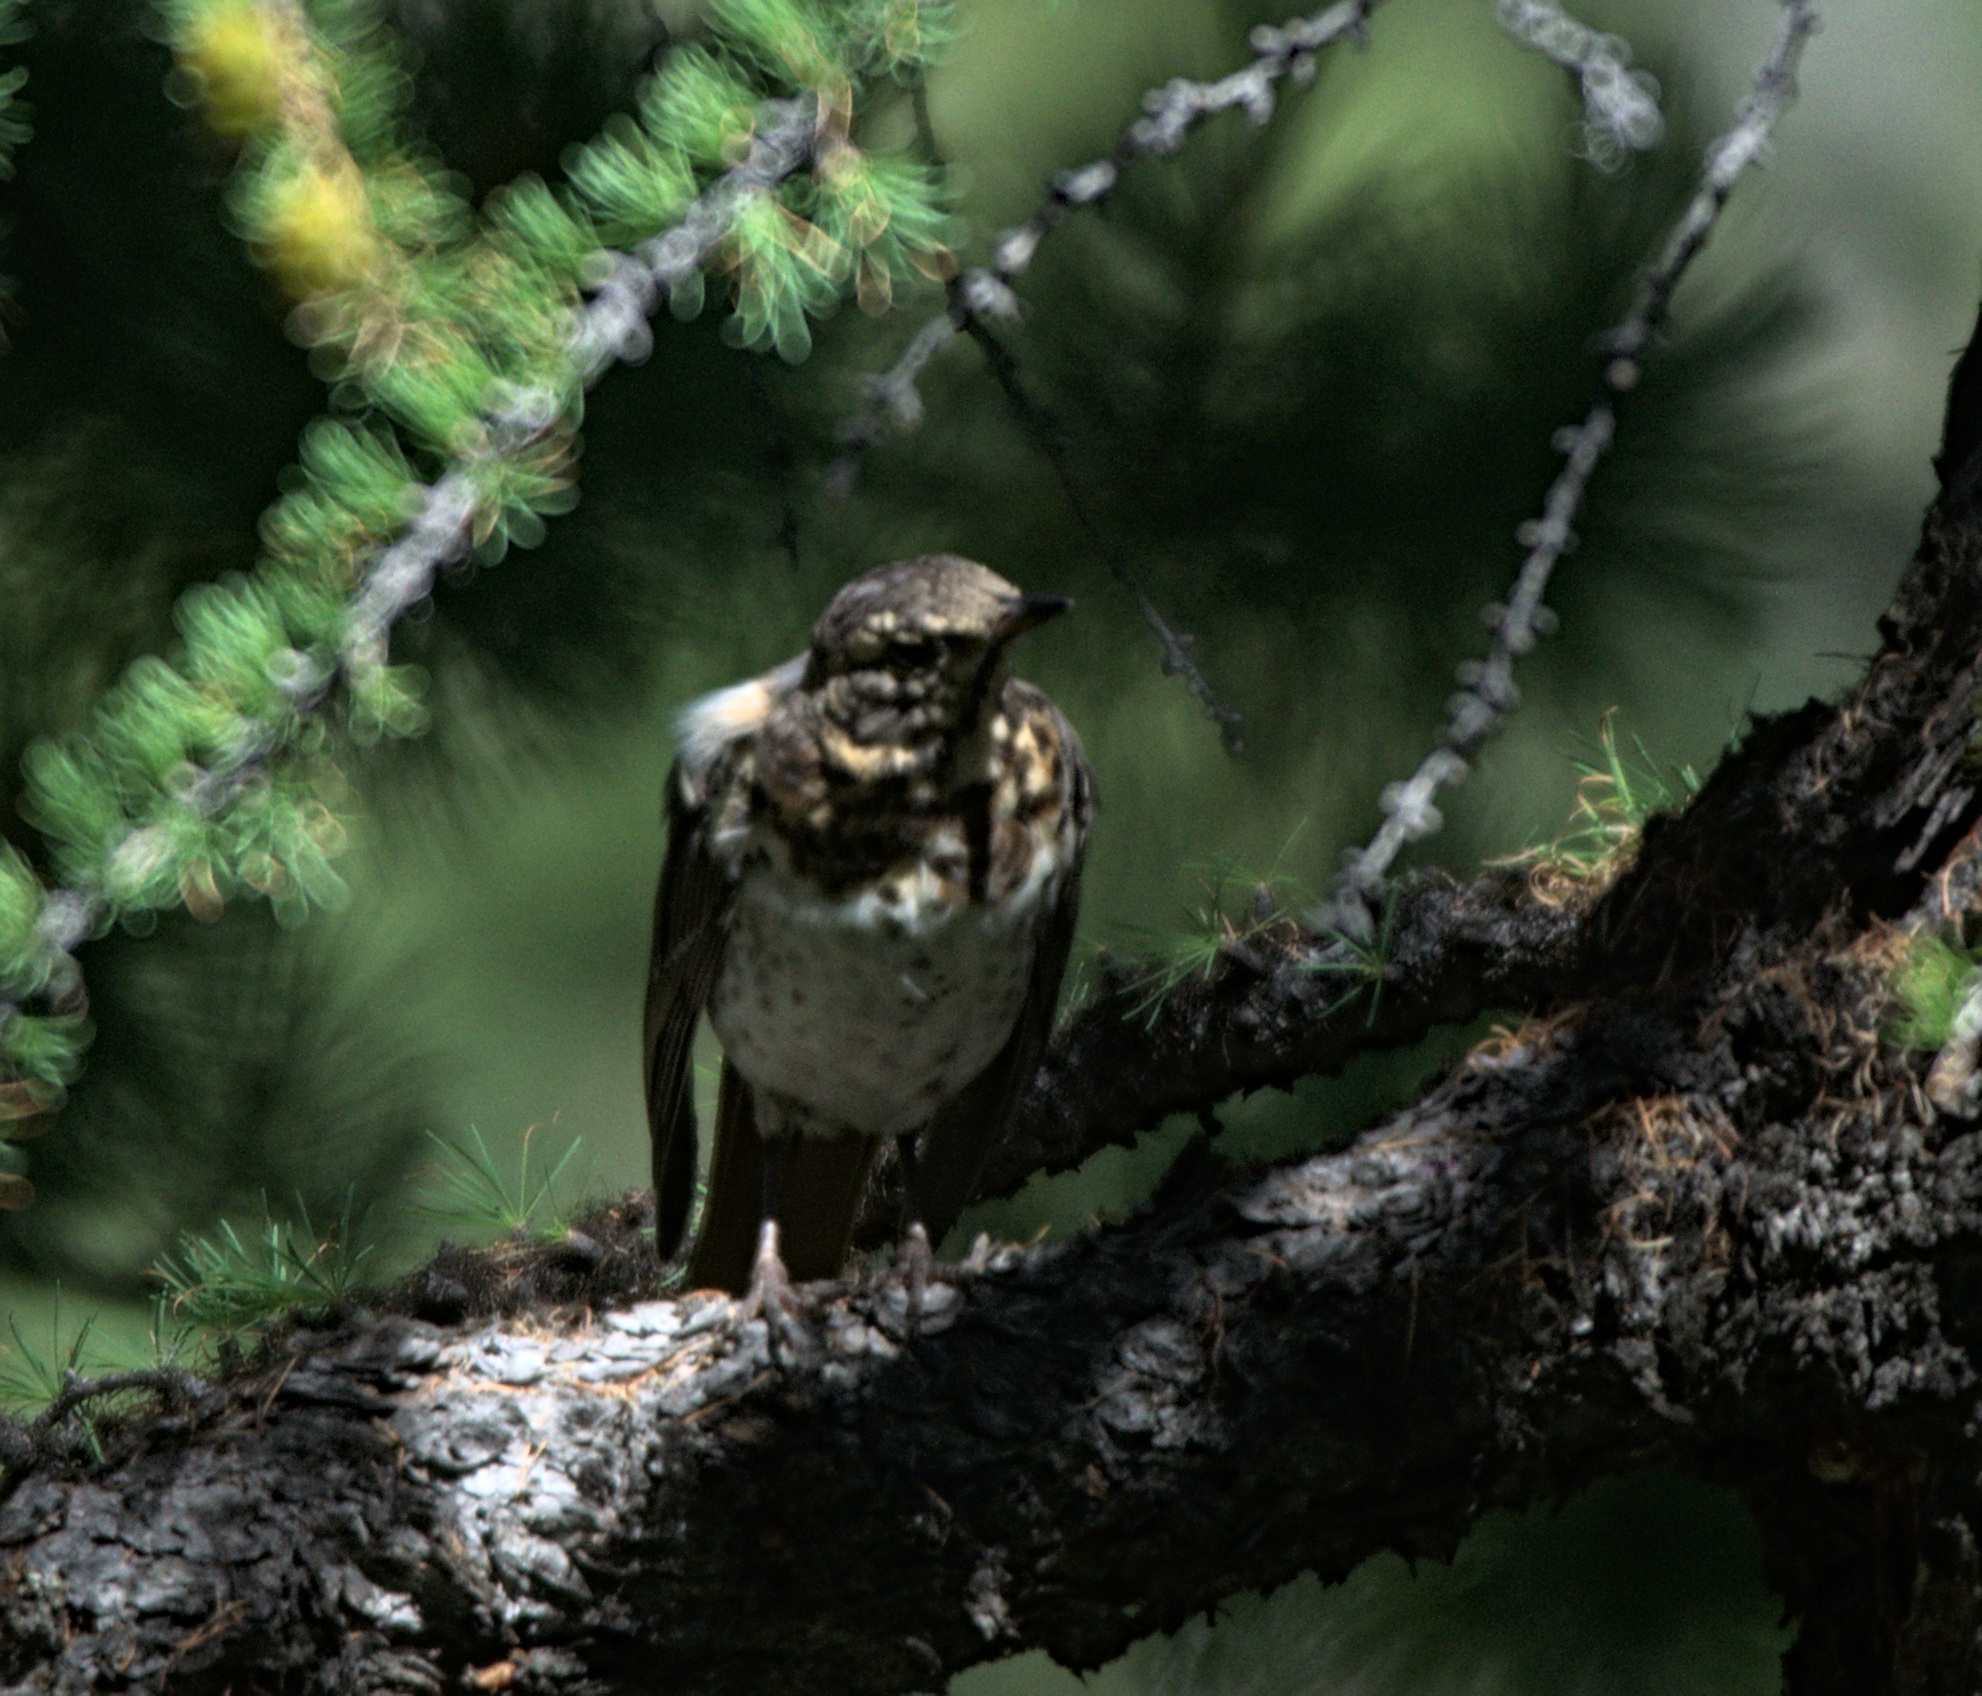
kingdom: Animalia
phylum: Chordata
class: Aves
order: Passeriformes
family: Turdidae
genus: Turdus
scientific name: Turdus ruficollis
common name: Red-throated thrush
